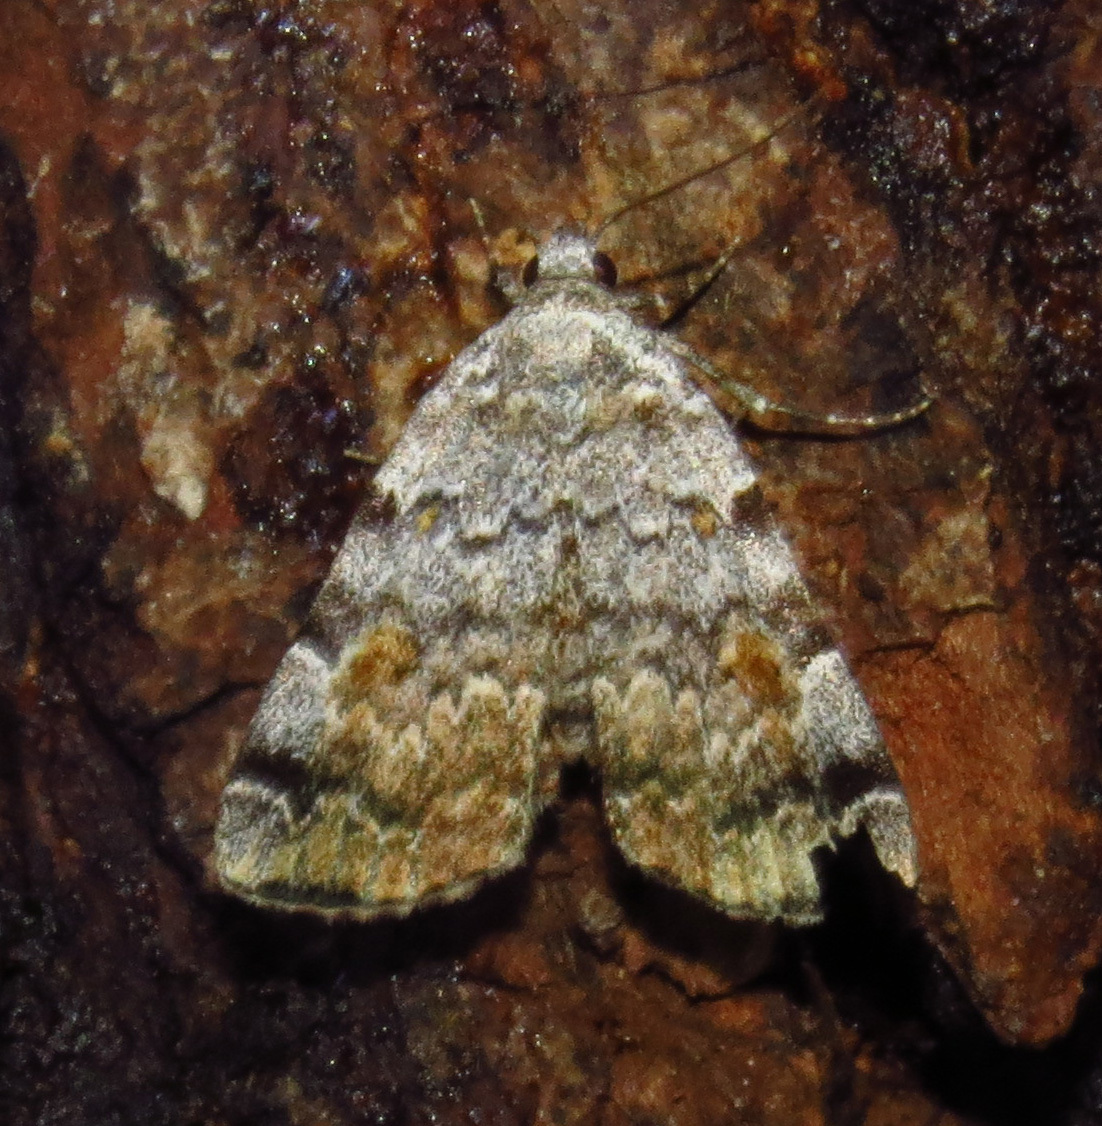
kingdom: Animalia
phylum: Arthropoda
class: Insecta
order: Lepidoptera
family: Erebidae
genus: Idia
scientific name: Idia americalis
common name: American idia moth
